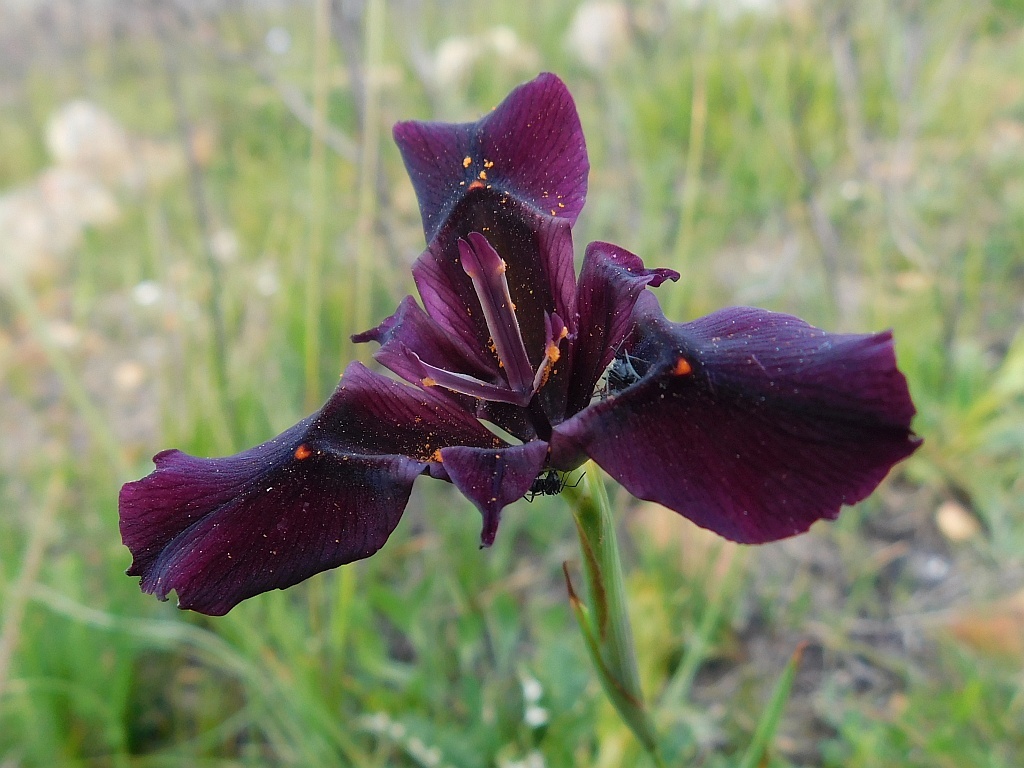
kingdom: Plantae
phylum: Tracheophyta
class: Liliopsida
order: Asparagales
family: Iridaceae
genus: Moraea
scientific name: Moraea lurida
